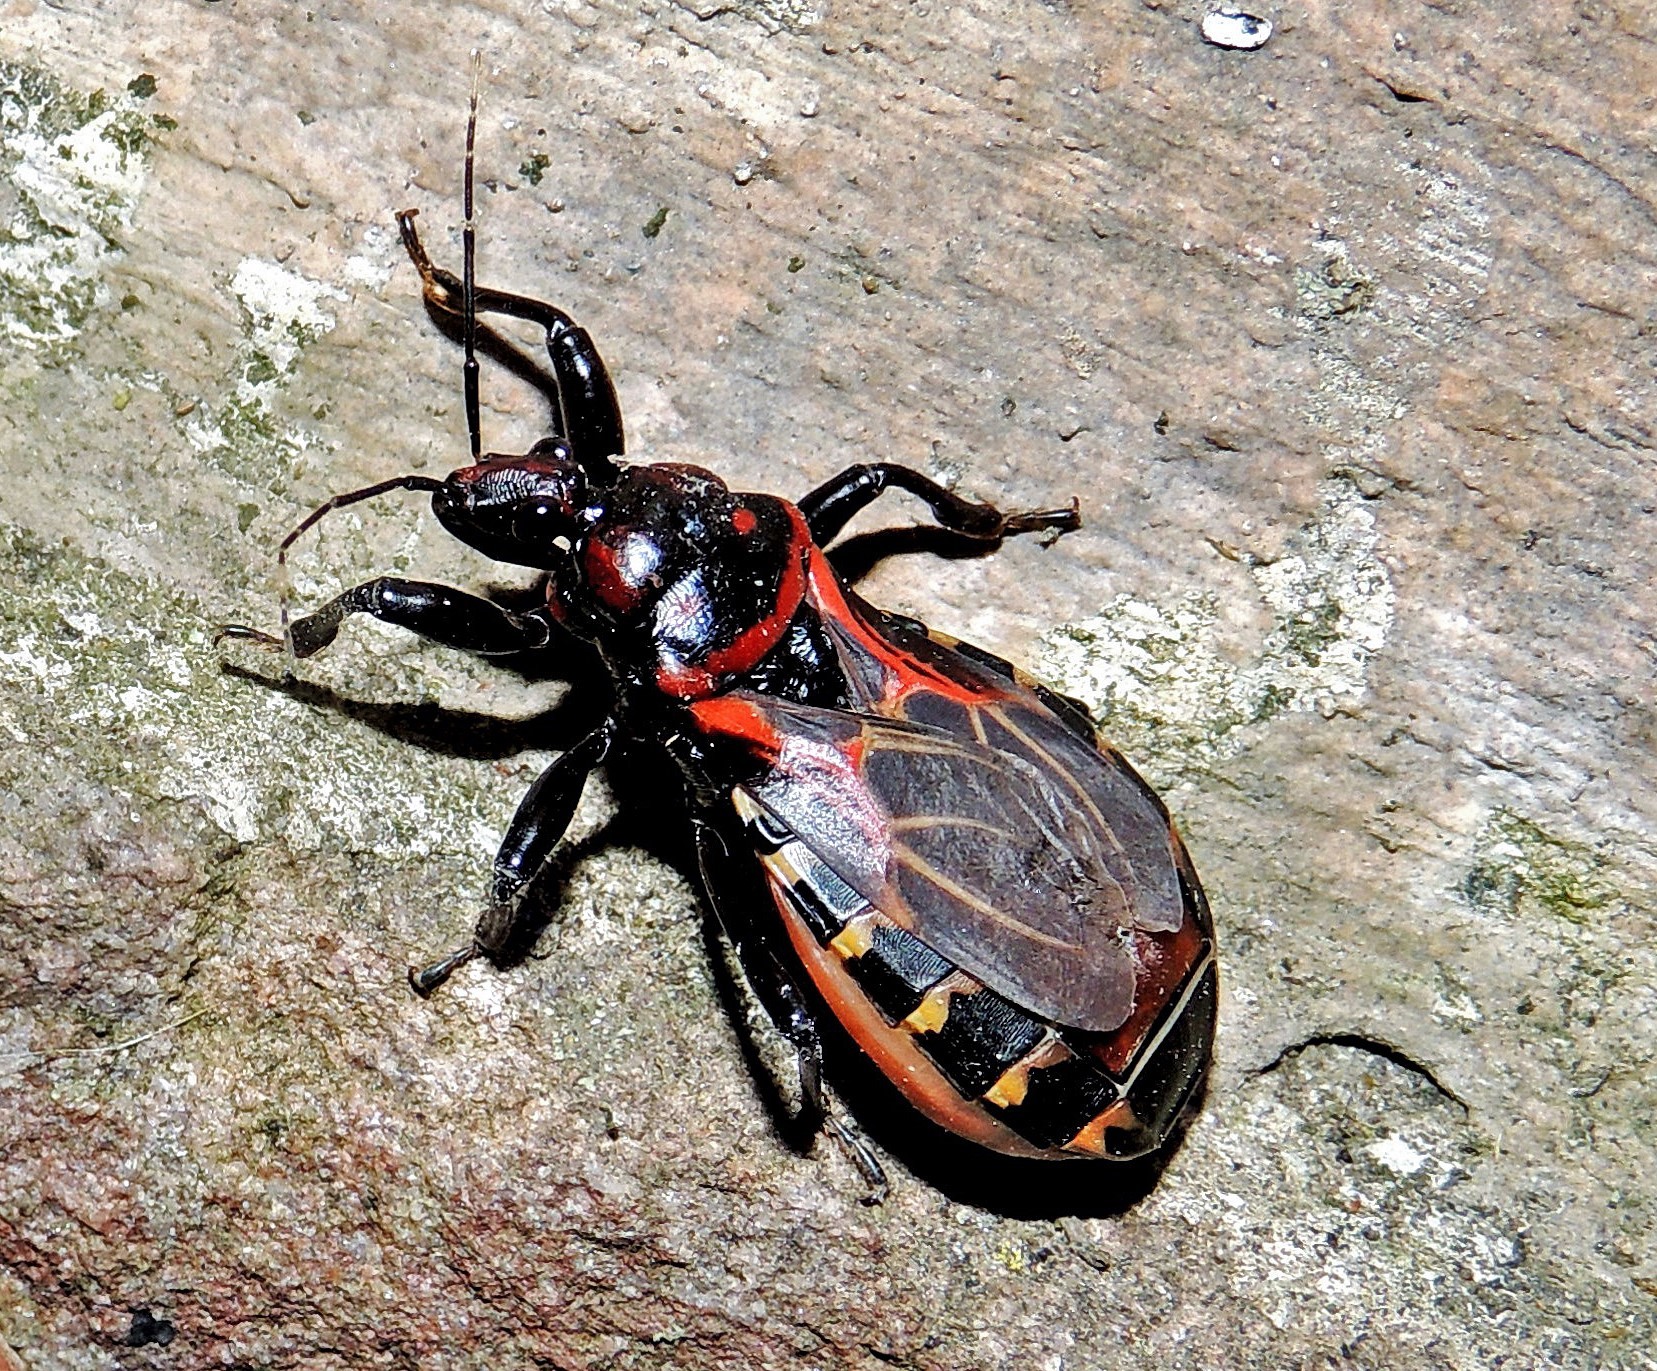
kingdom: Animalia
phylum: Arthropoda
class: Insecta
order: Hemiptera
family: Reduviidae
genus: Brontostoma
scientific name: Brontostoma colossus
